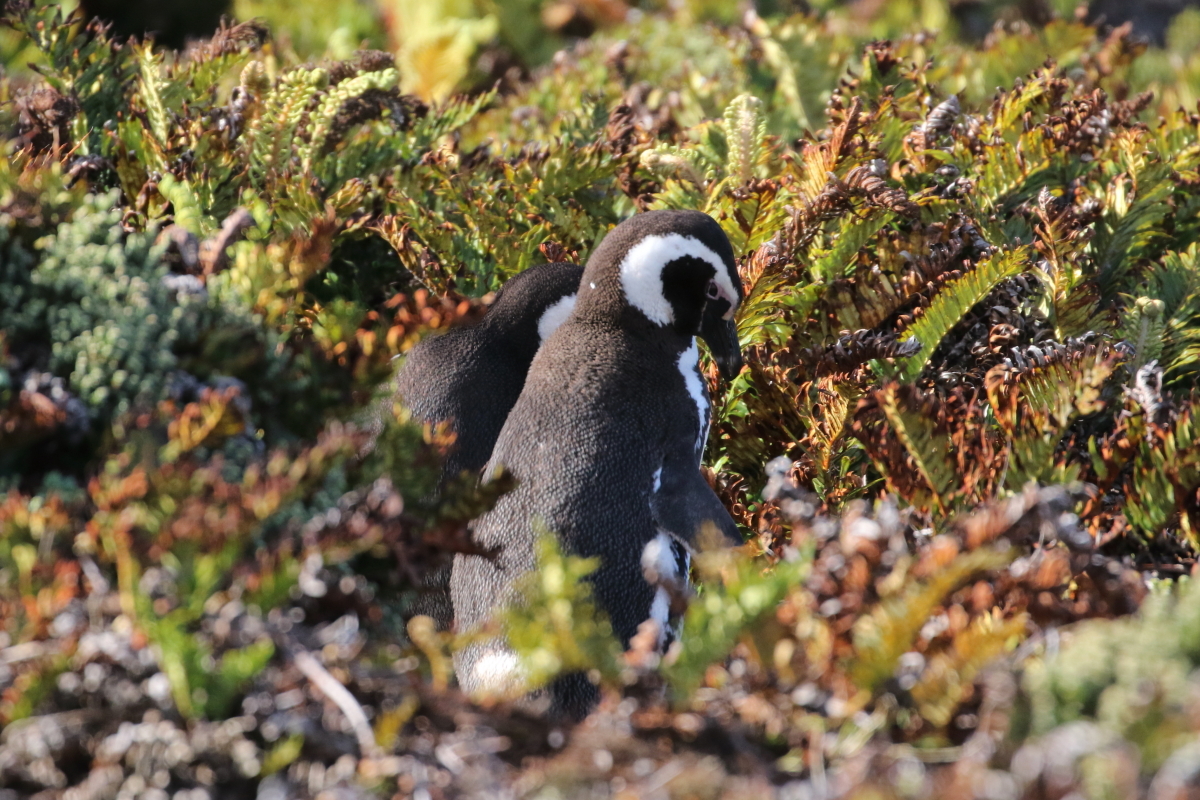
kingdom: Animalia
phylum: Chordata
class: Aves
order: Sphenisciformes
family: Spheniscidae
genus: Spheniscus
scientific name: Spheniscus magellanicus
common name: Magellanic penguin
